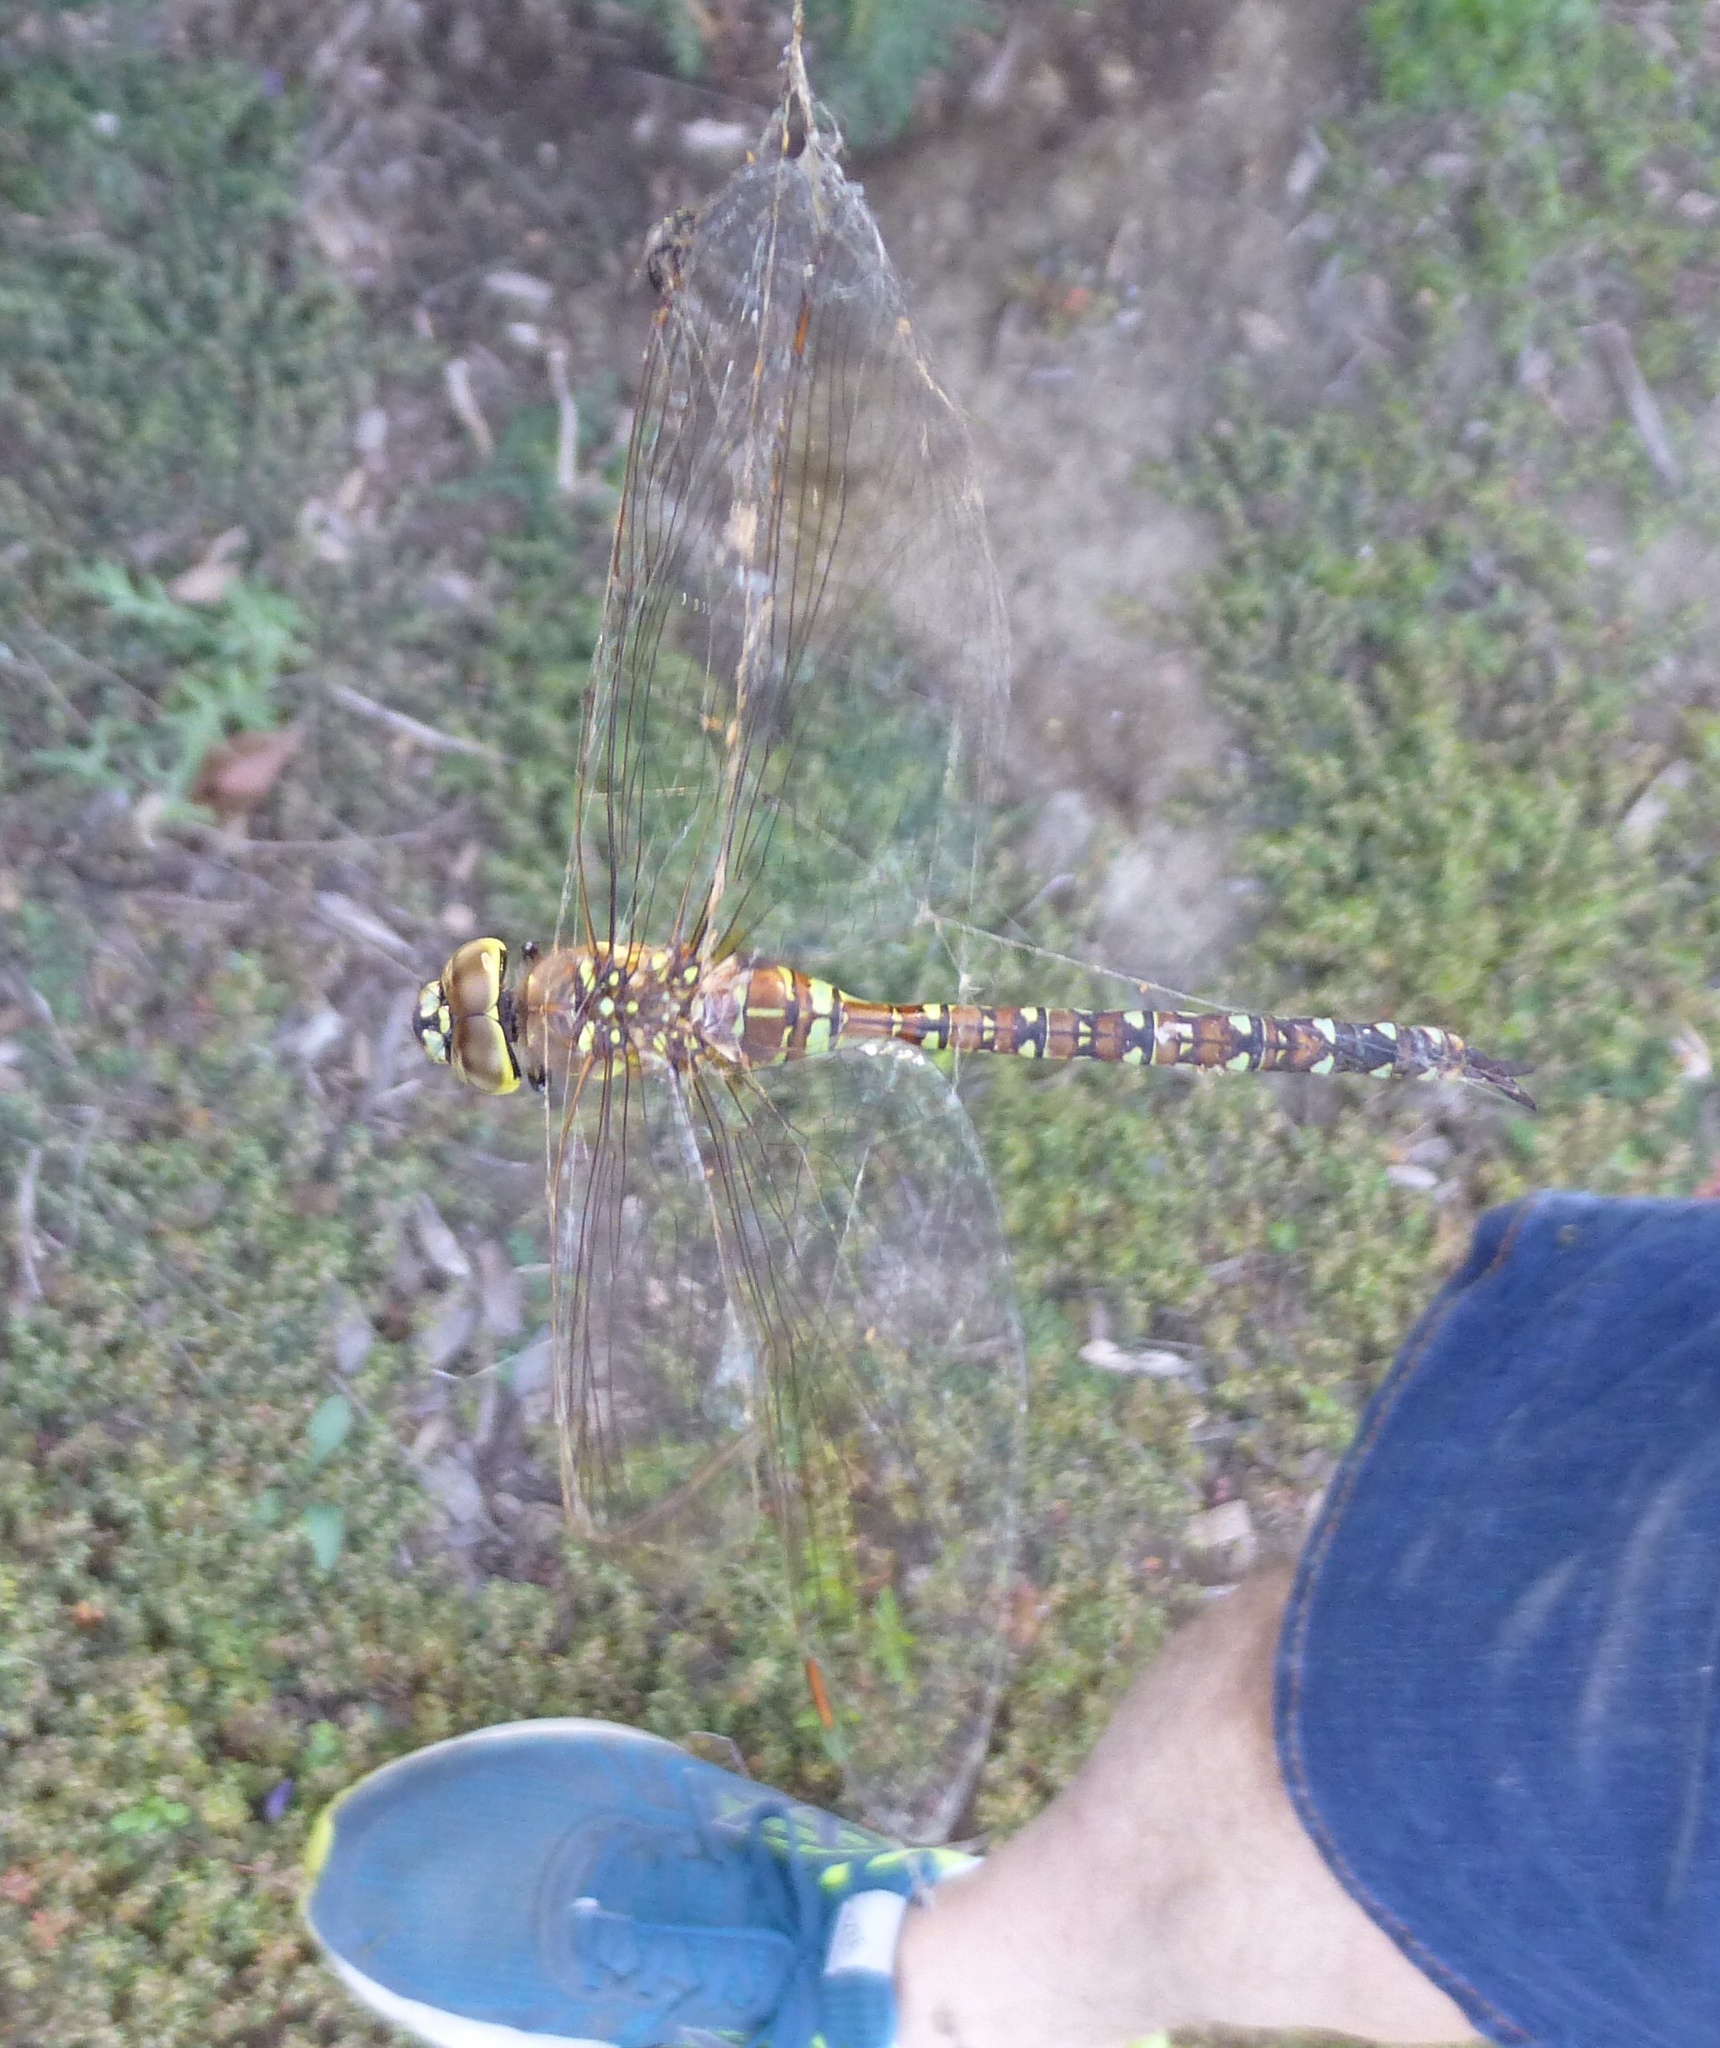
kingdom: Animalia
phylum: Arthropoda
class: Insecta
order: Odonata
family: Aeshnidae
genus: Rhionaeschna
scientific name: Rhionaeschna multicolor
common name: Blue-eyed darner
